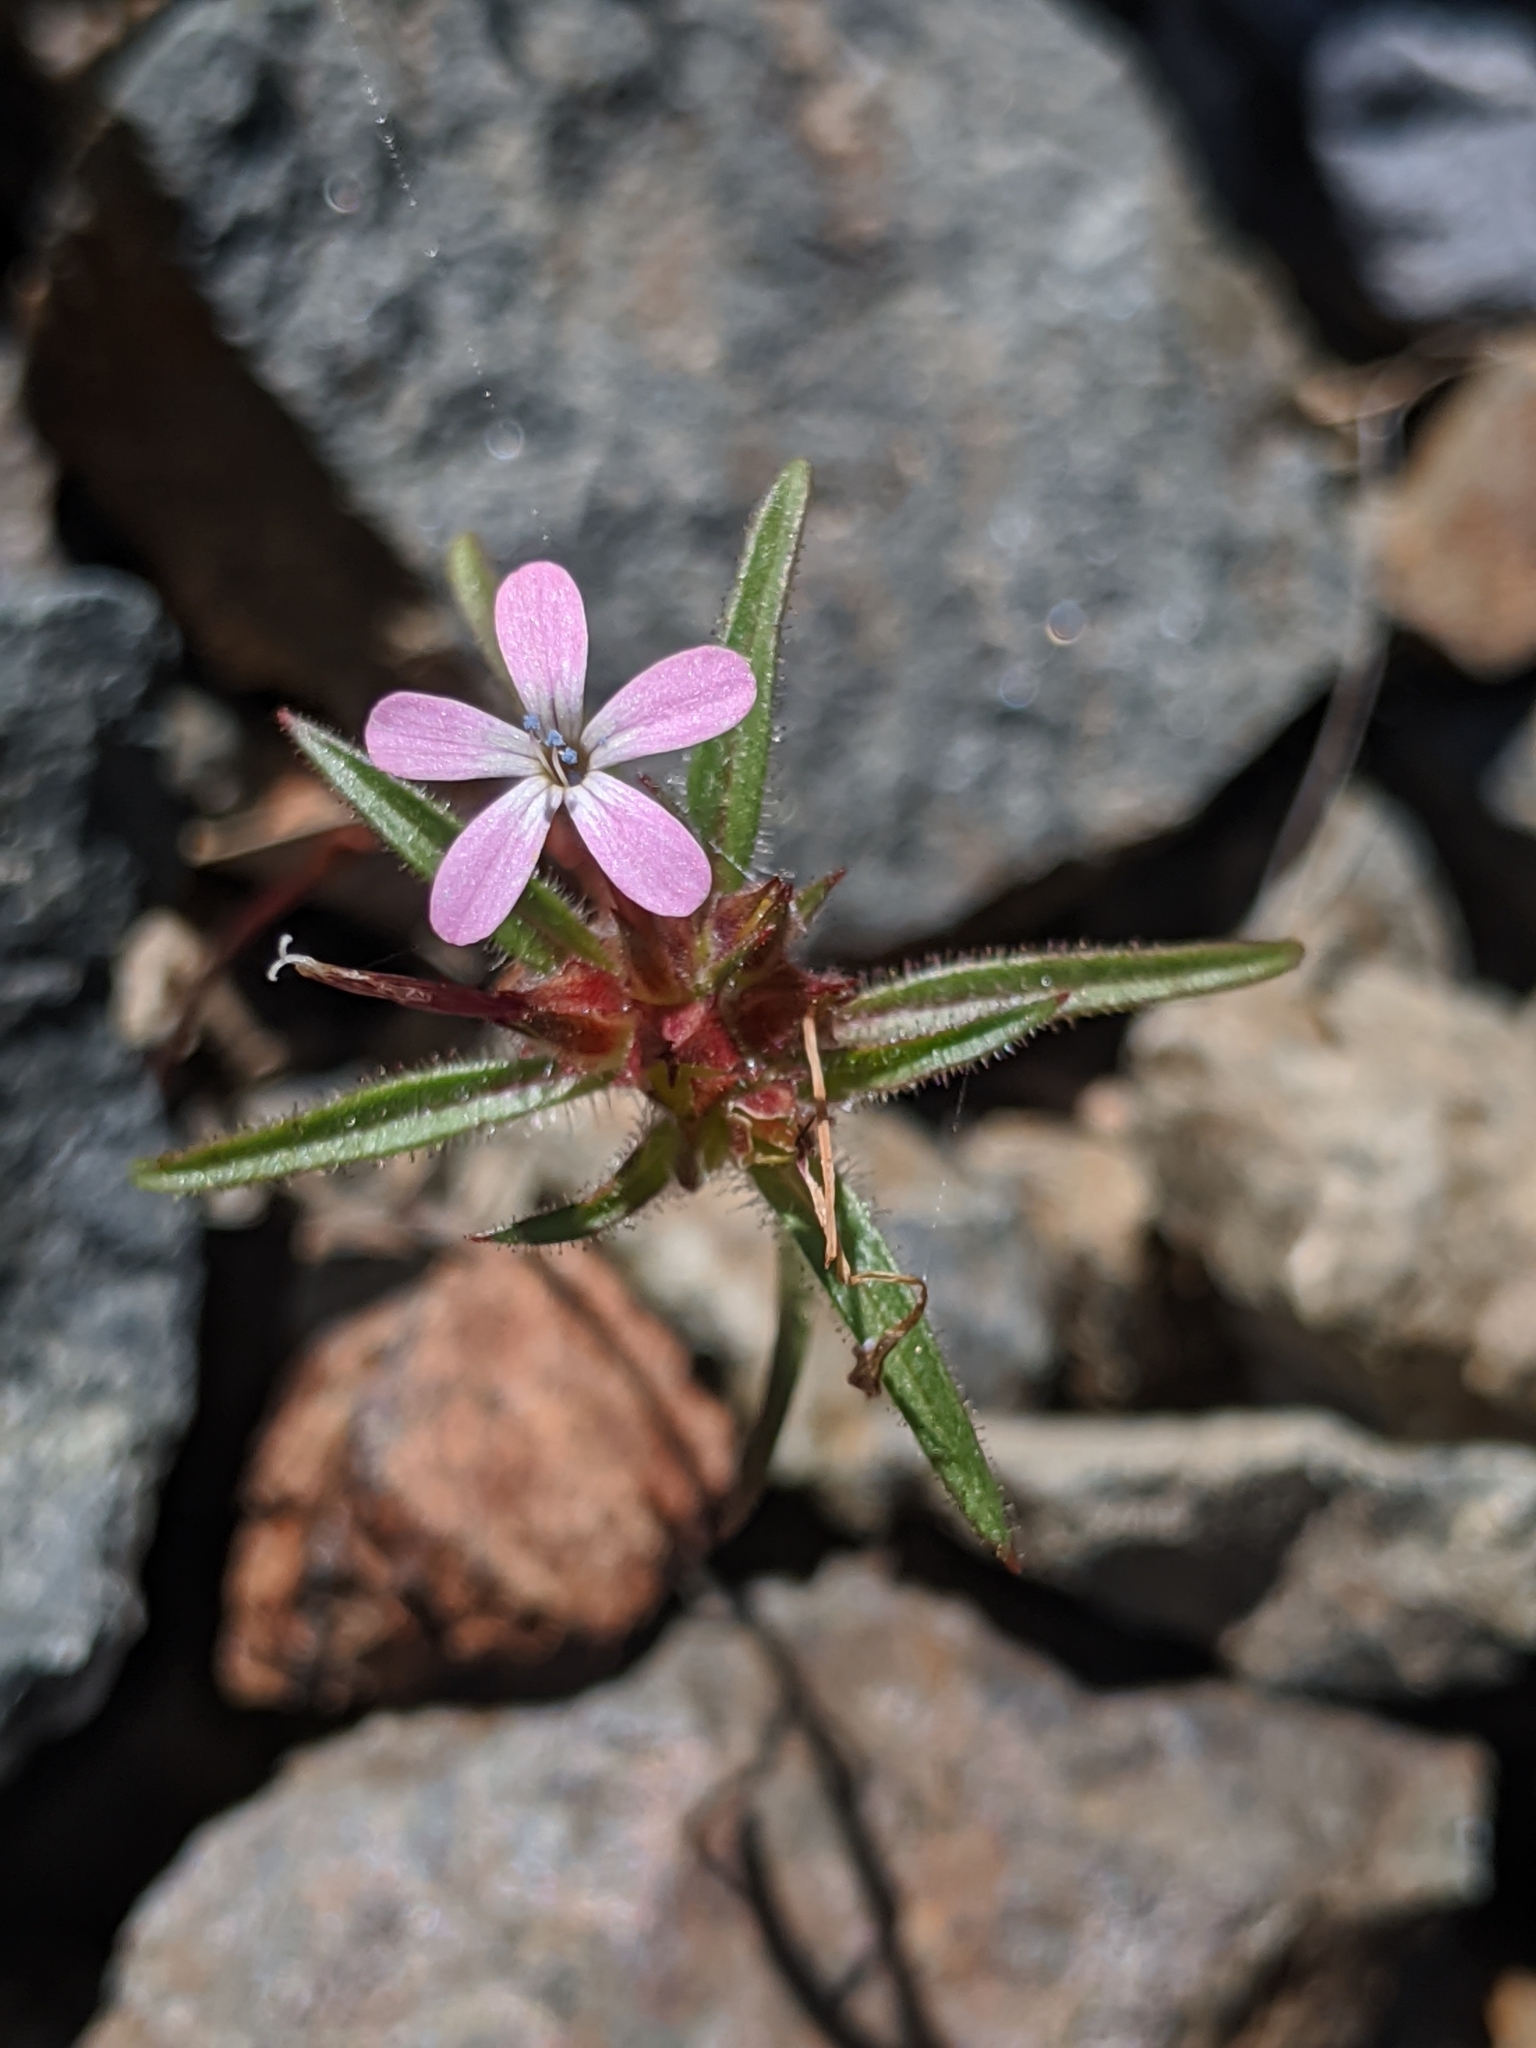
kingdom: Plantae
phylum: Tracheophyta
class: Magnoliopsida
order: Ericales
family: Polemoniaceae
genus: Collomia
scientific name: Collomia tracyi
